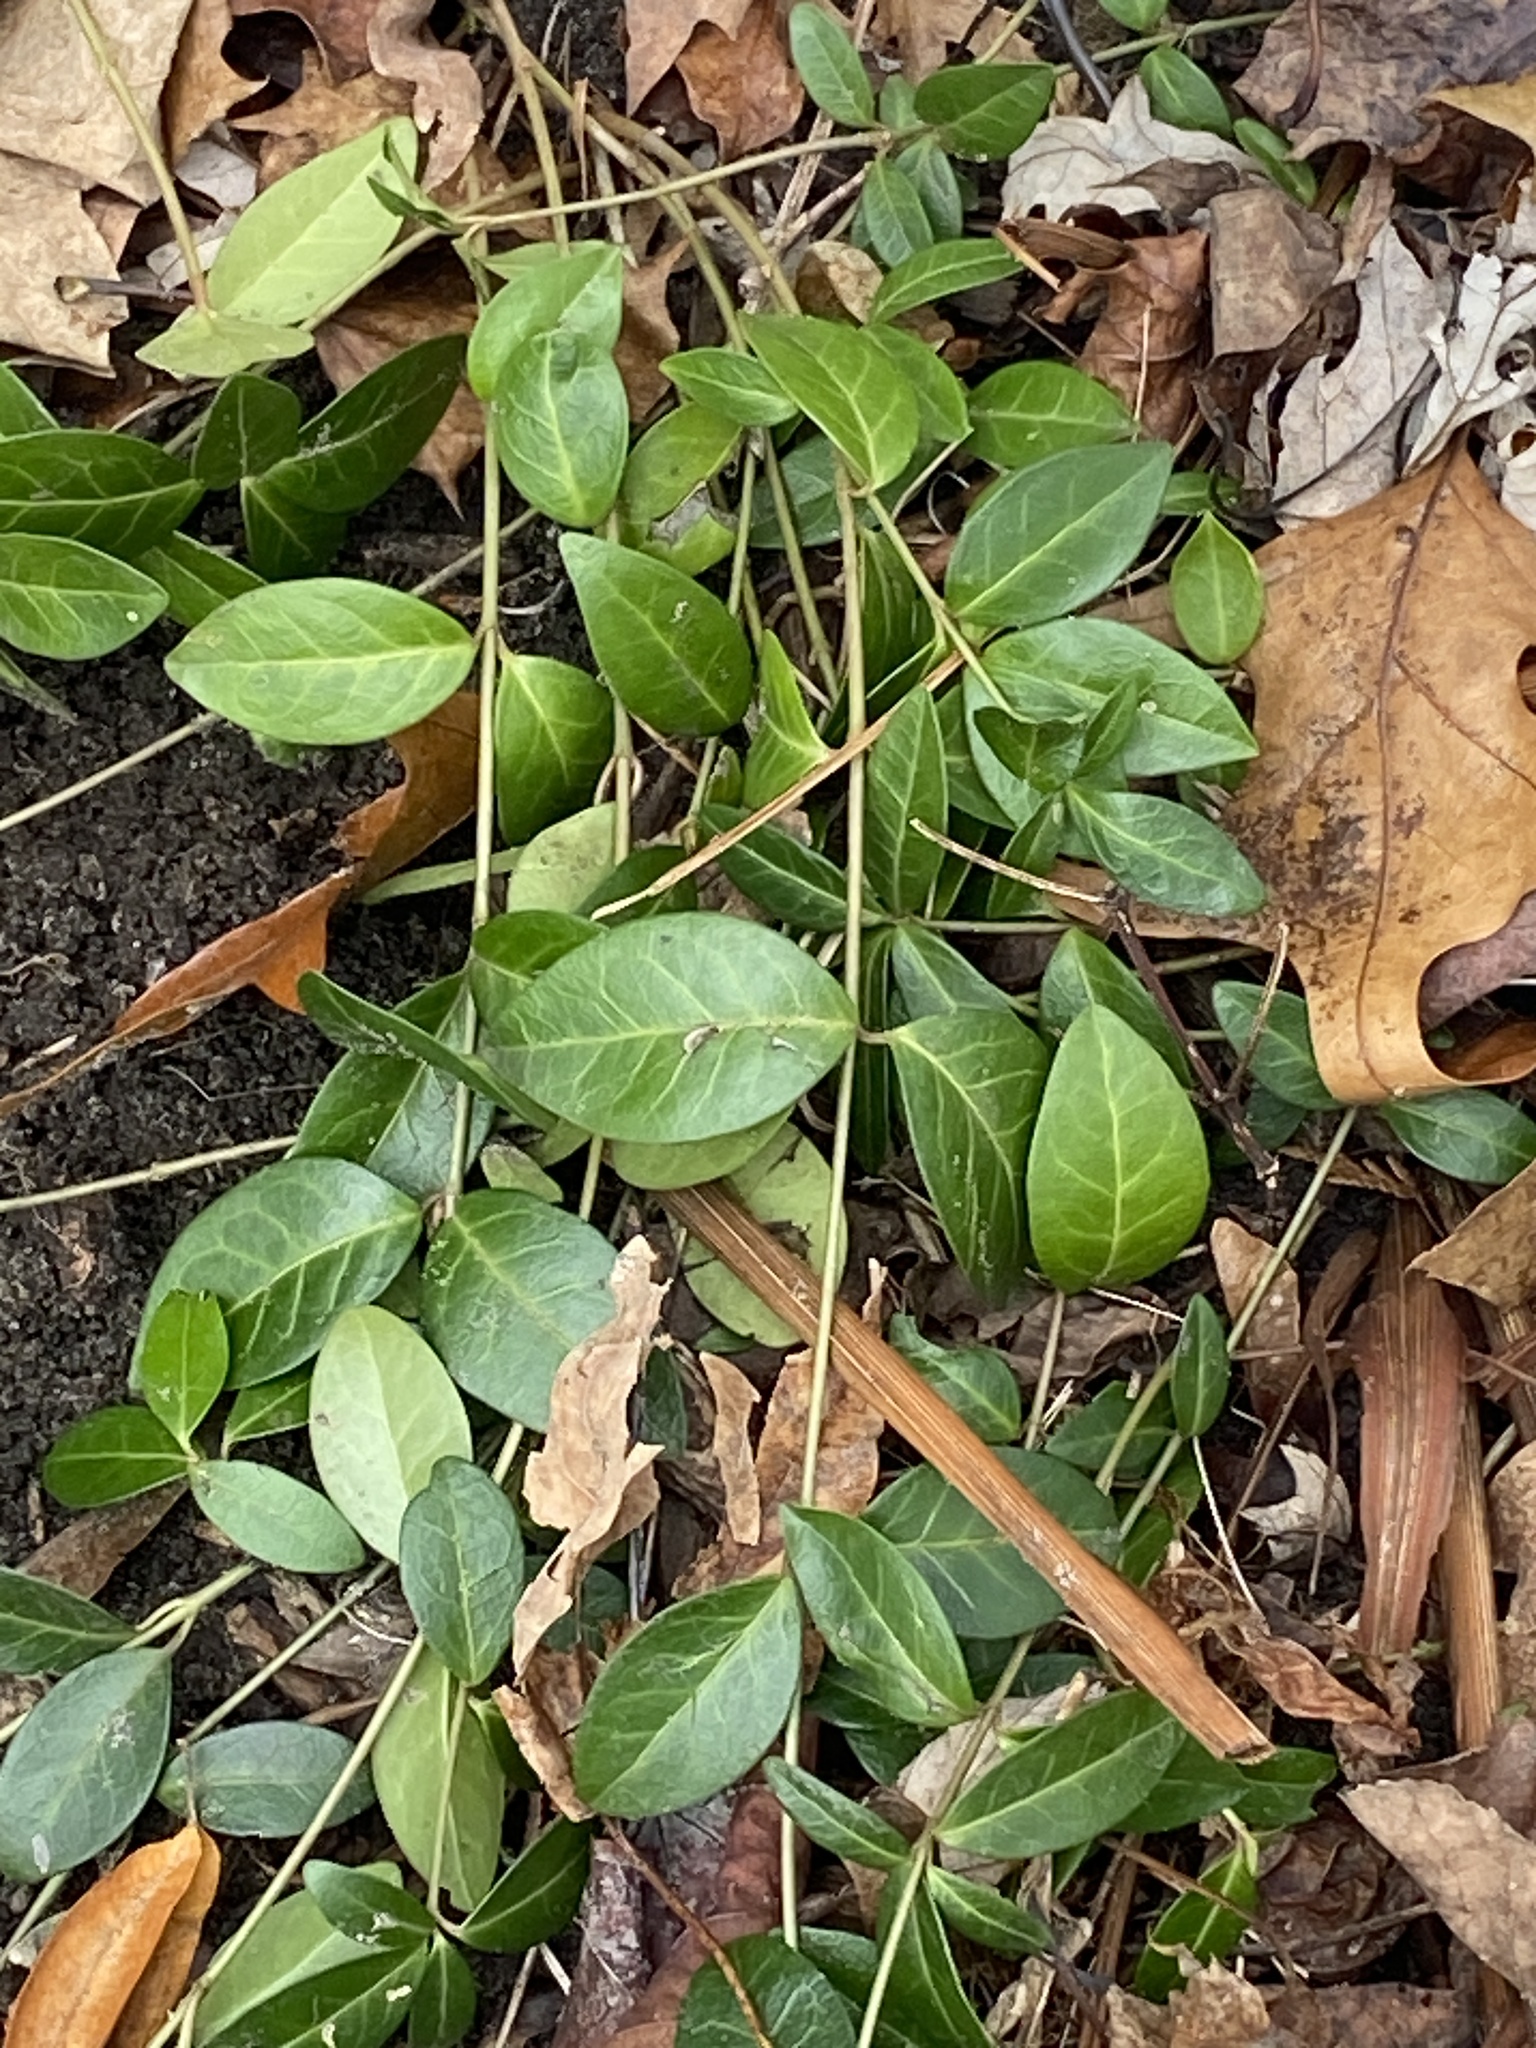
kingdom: Plantae
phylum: Tracheophyta
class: Magnoliopsida
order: Gentianales
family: Apocynaceae
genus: Vinca
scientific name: Vinca minor
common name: Lesser periwinkle
